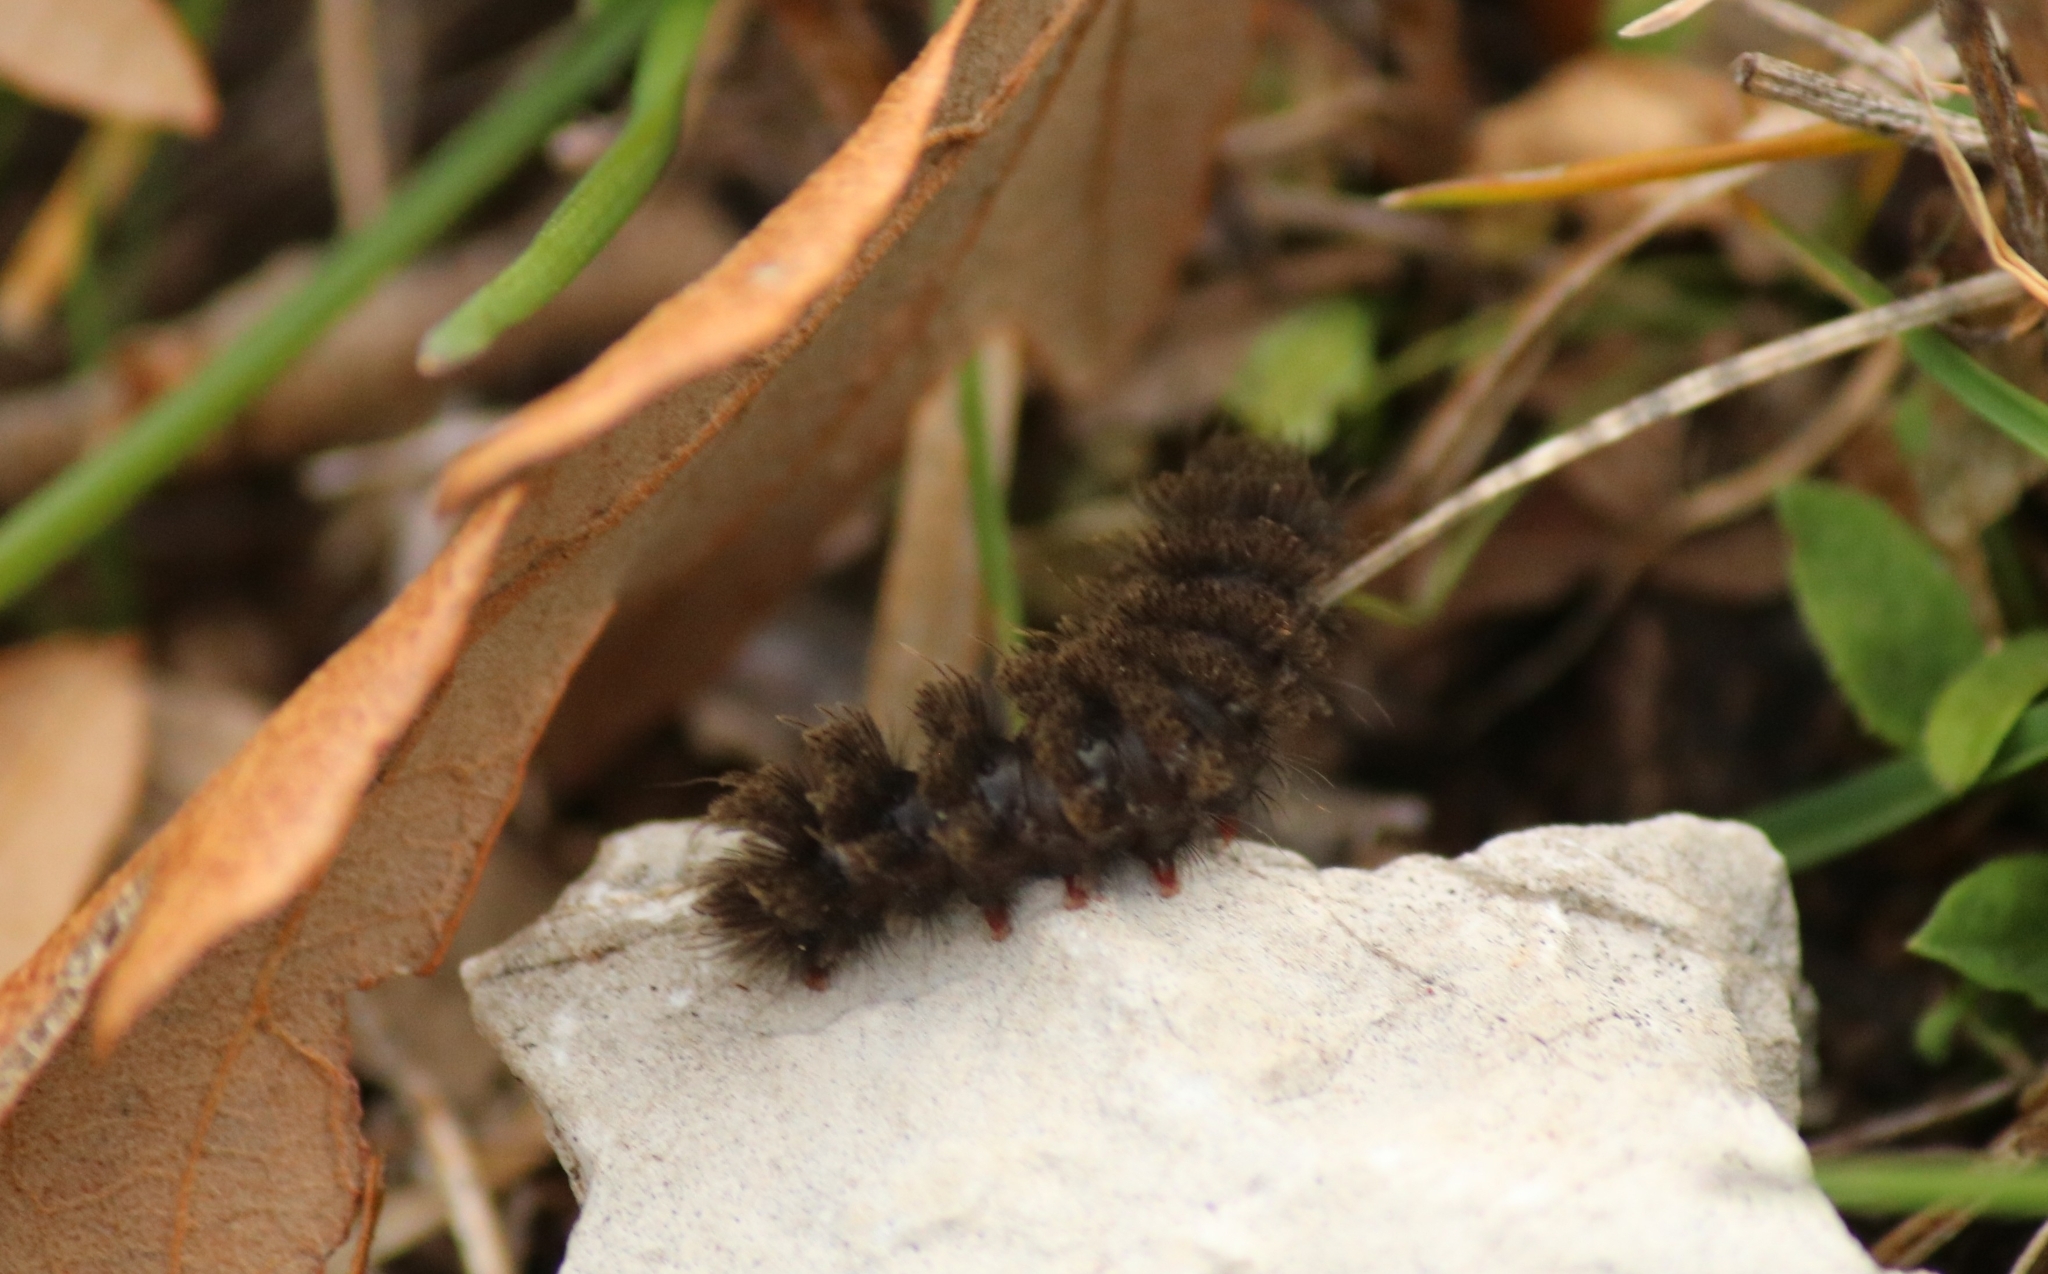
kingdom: Animalia
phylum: Arthropoda
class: Insecta
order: Lepidoptera
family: Erebidae
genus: Amata
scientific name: Amata phegea
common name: Nine-spotted
